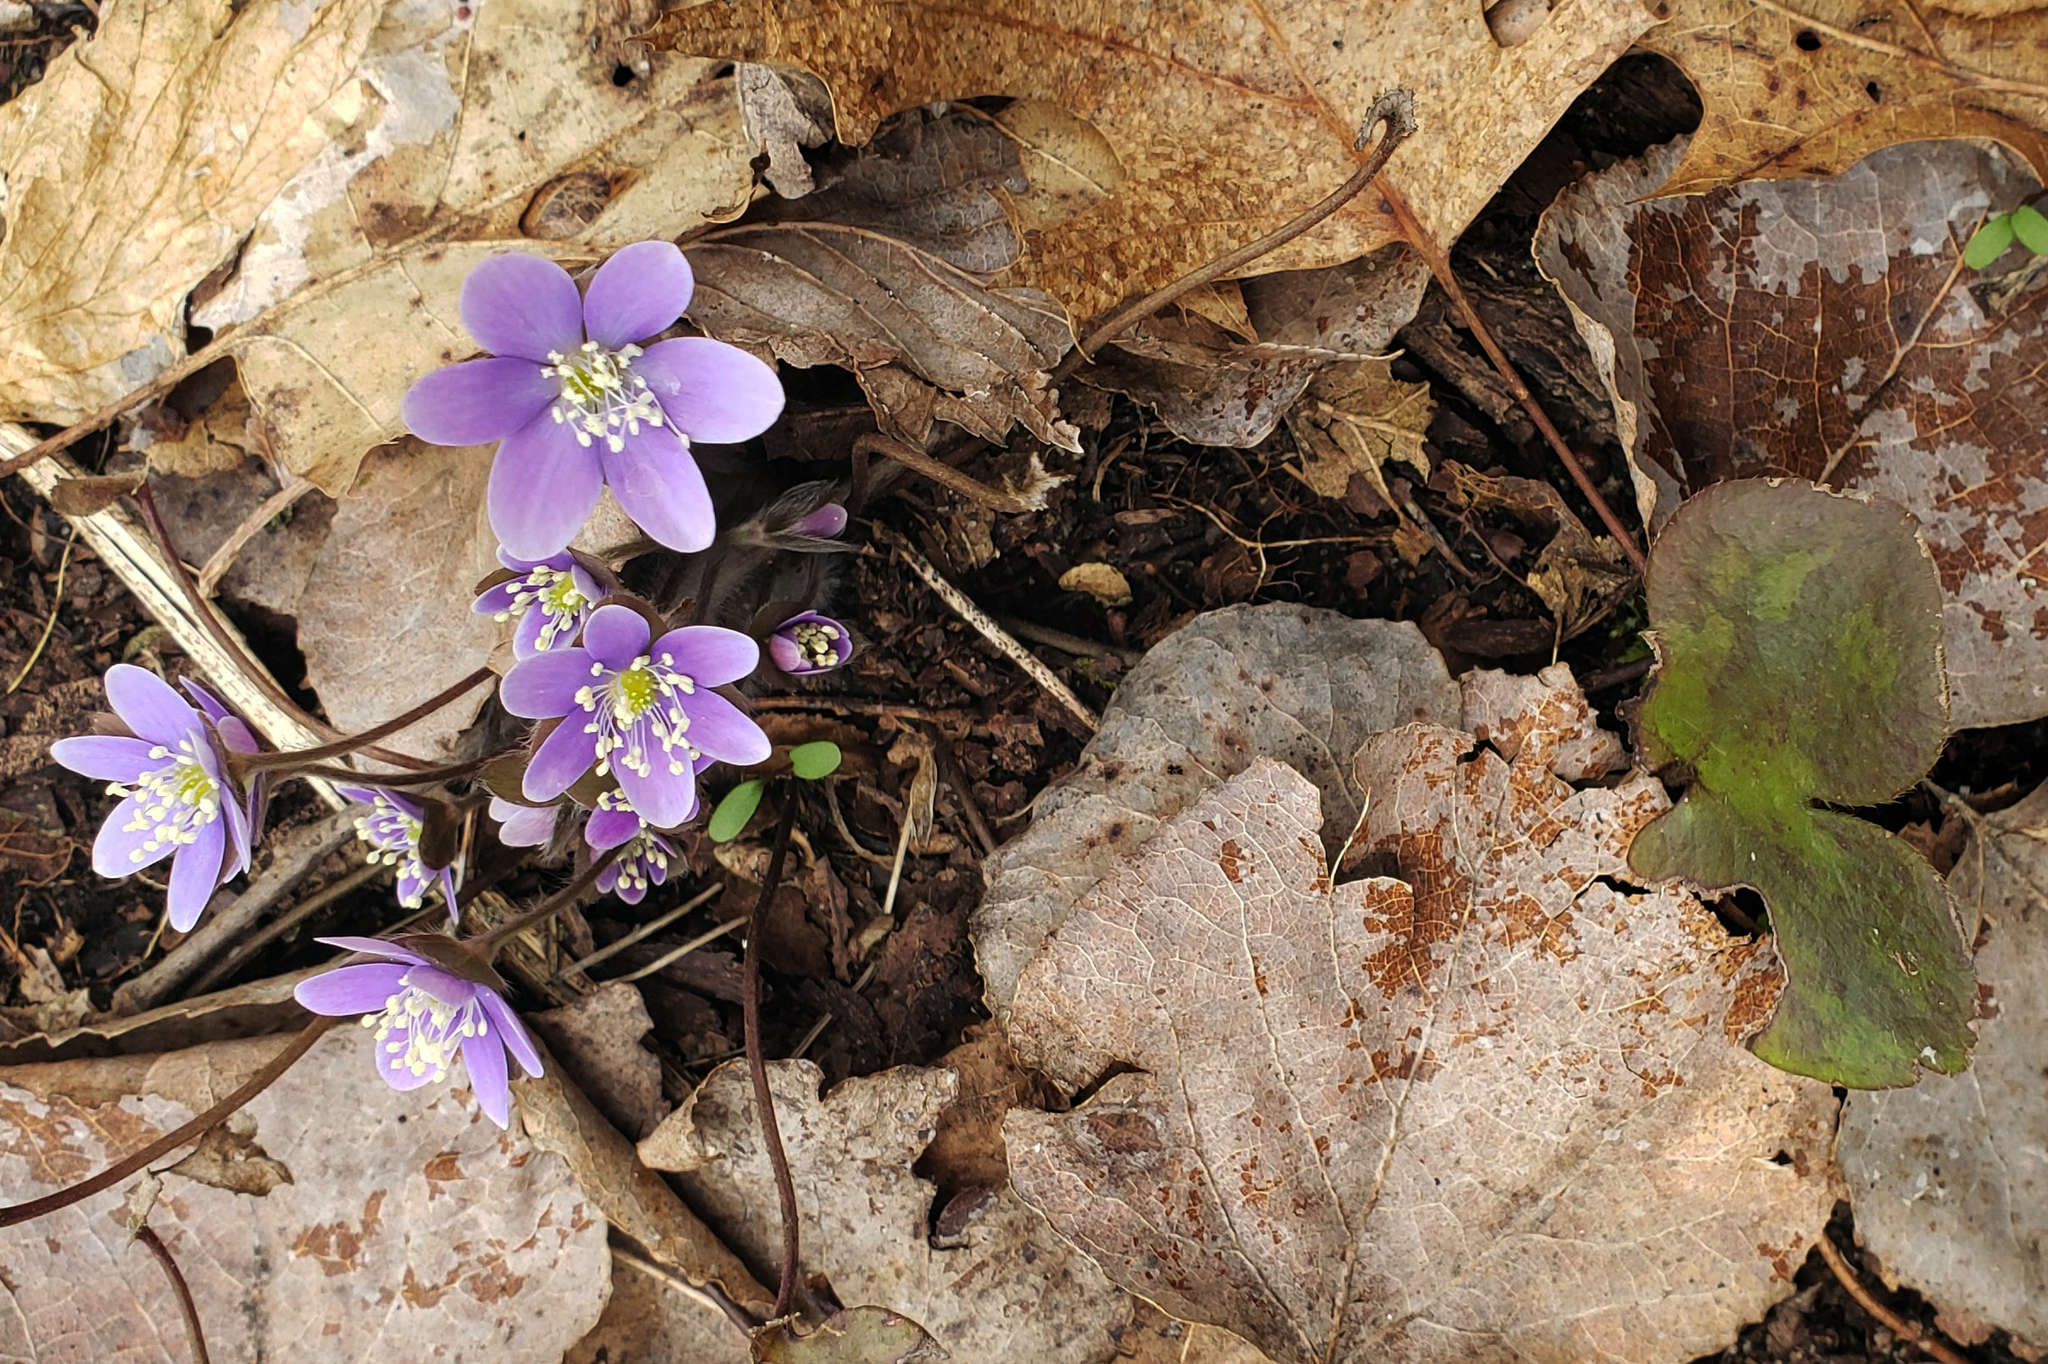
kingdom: Plantae
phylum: Tracheophyta
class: Magnoliopsida
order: Ranunculales
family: Ranunculaceae
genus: Hepatica
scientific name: Hepatica americana
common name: American hepatica
